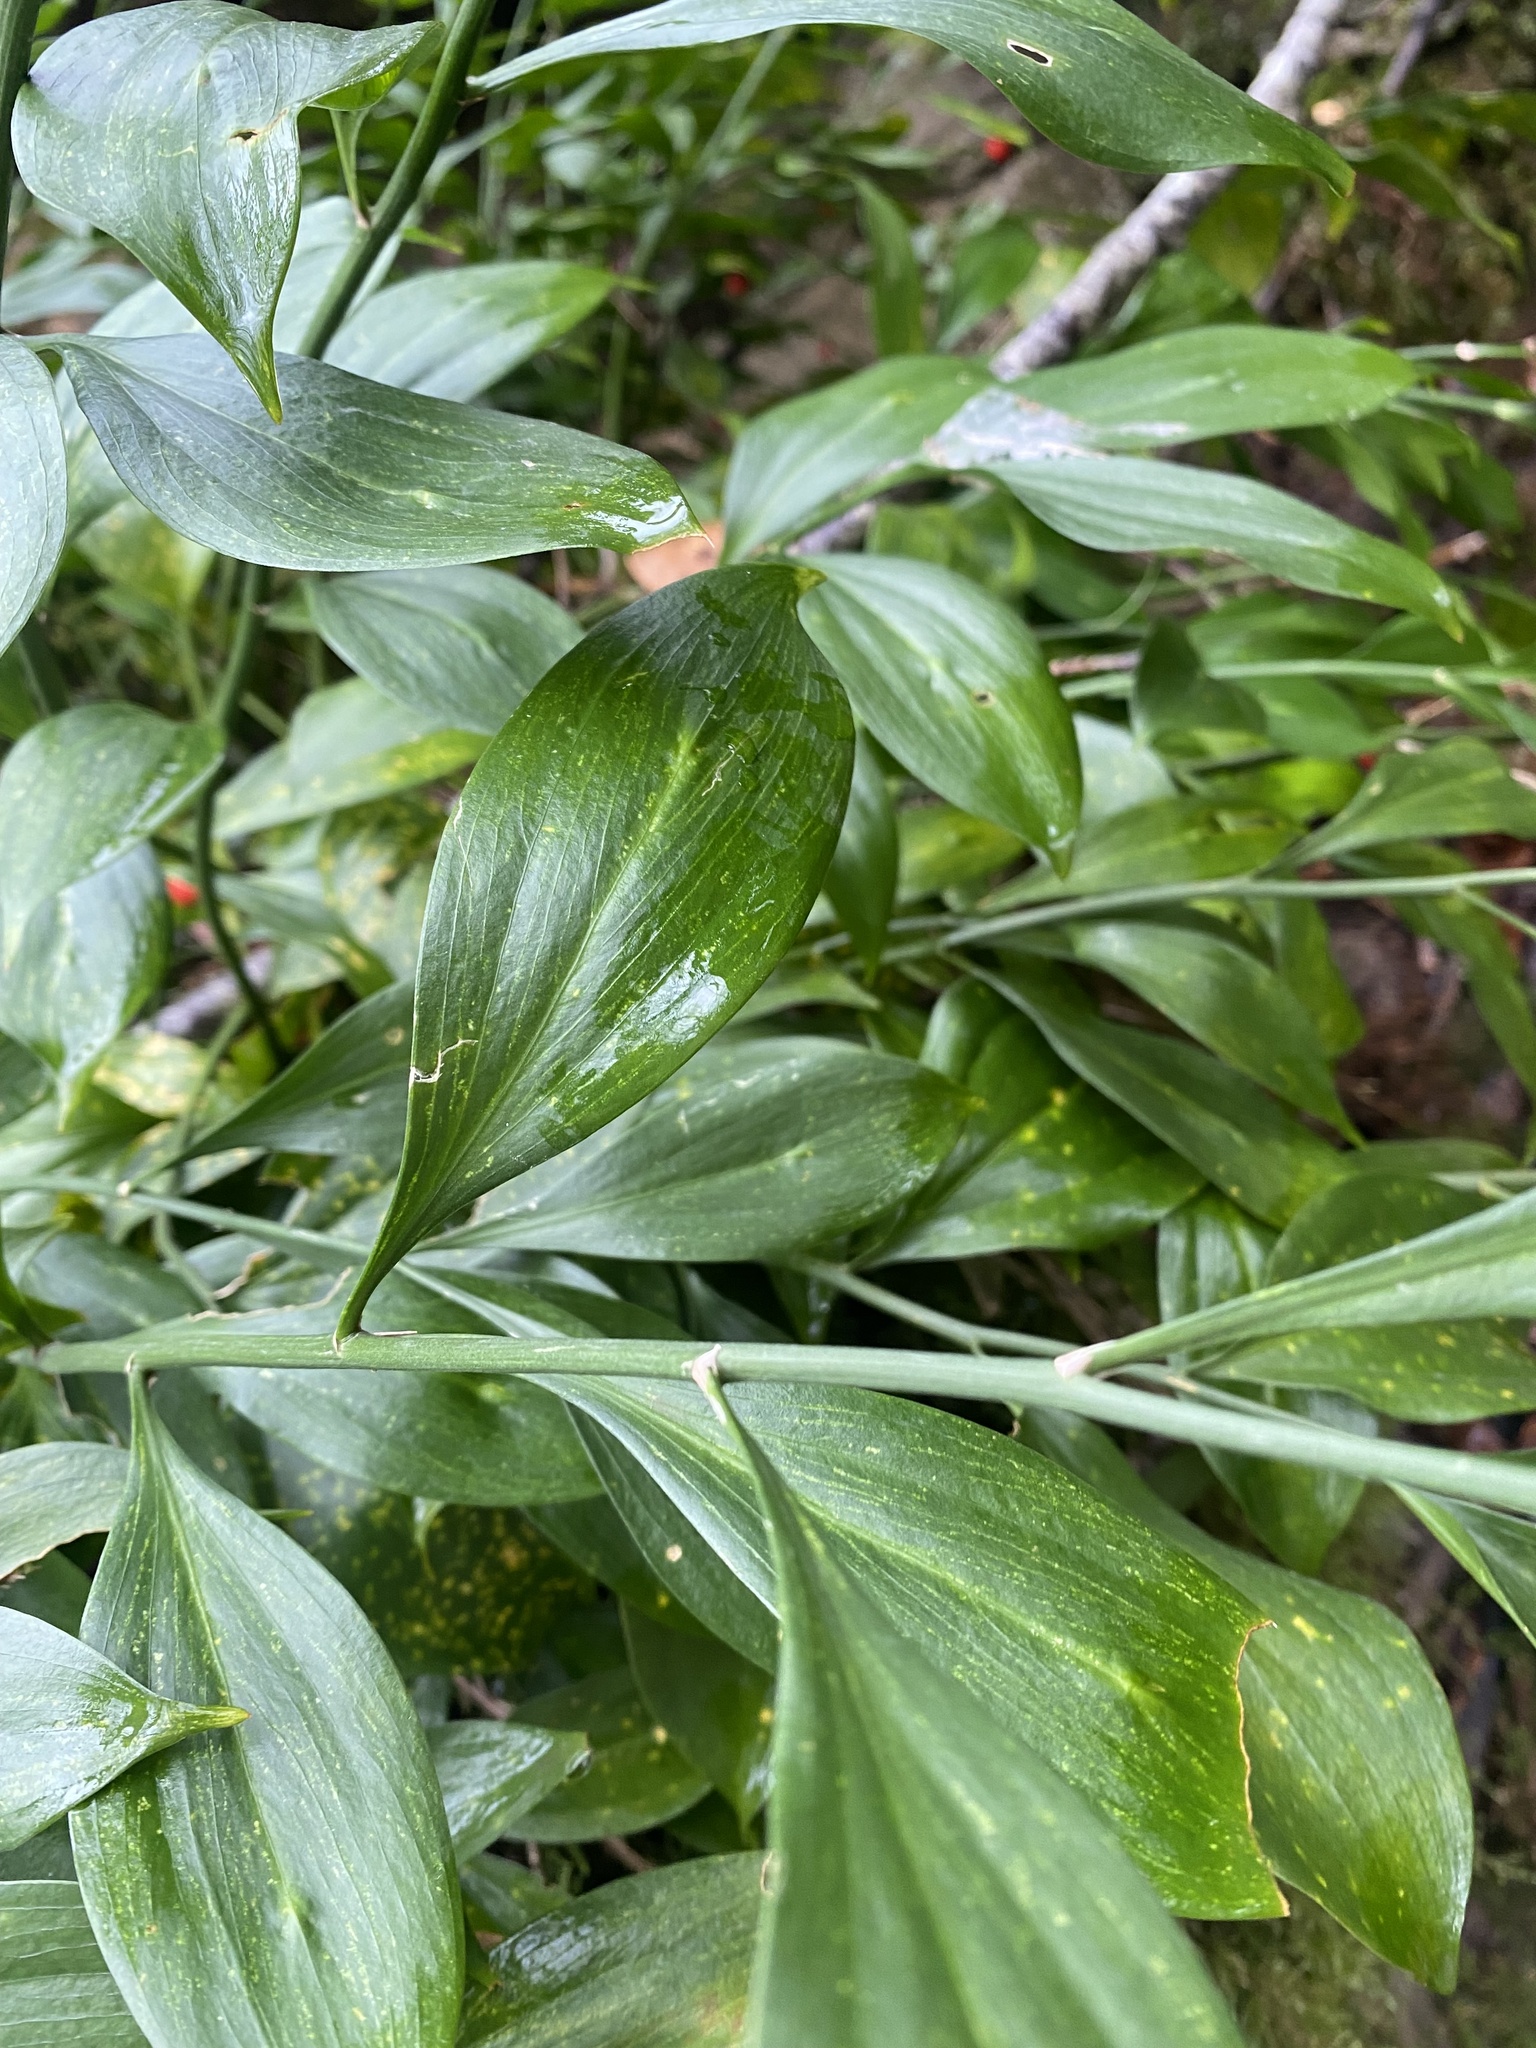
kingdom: Plantae
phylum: Tracheophyta
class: Liliopsida
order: Asparagales
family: Asparagaceae
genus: Ruscus
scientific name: Ruscus colchicus
